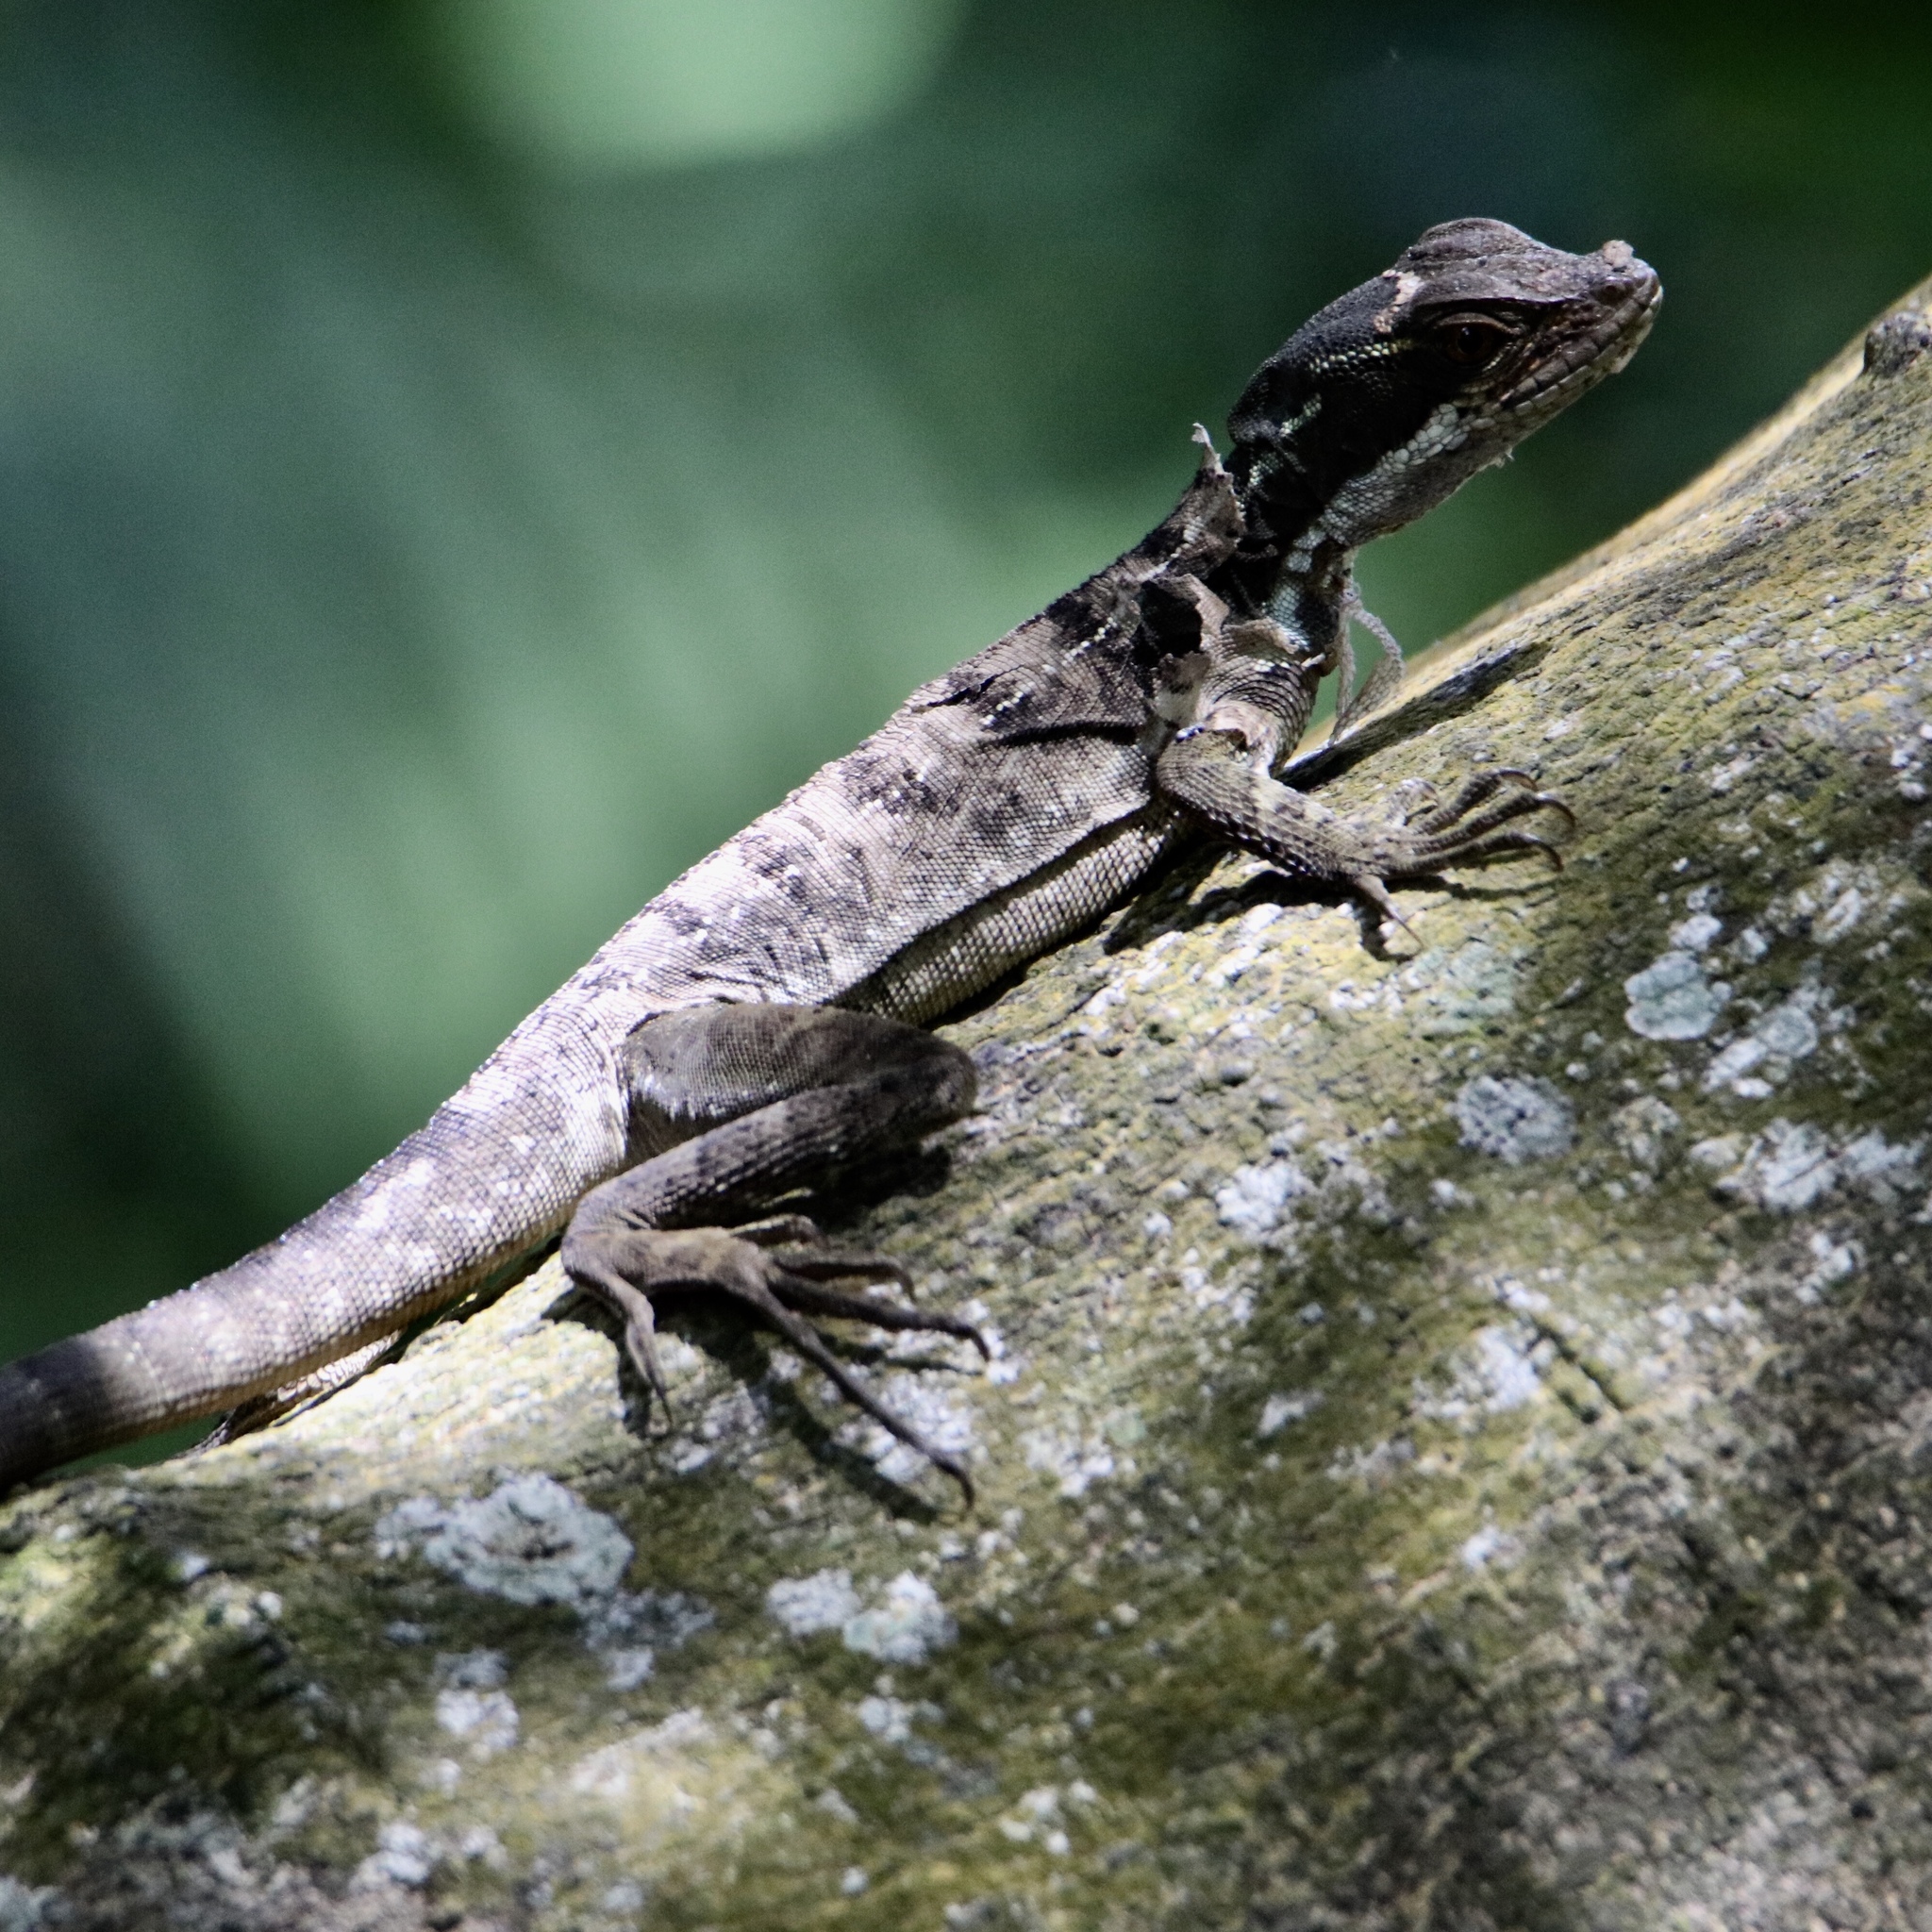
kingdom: Animalia
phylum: Chordata
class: Squamata
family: Corytophanidae
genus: Basiliscus
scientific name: Basiliscus basiliscus
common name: Common basilisk
